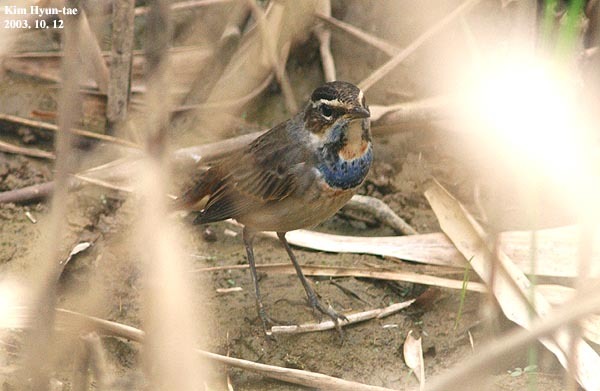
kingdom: Animalia
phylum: Chordata
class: Aves
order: Passeriformes
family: Muscicapidae
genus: Luscinia
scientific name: Luscinia svecica
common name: Bluethroat
